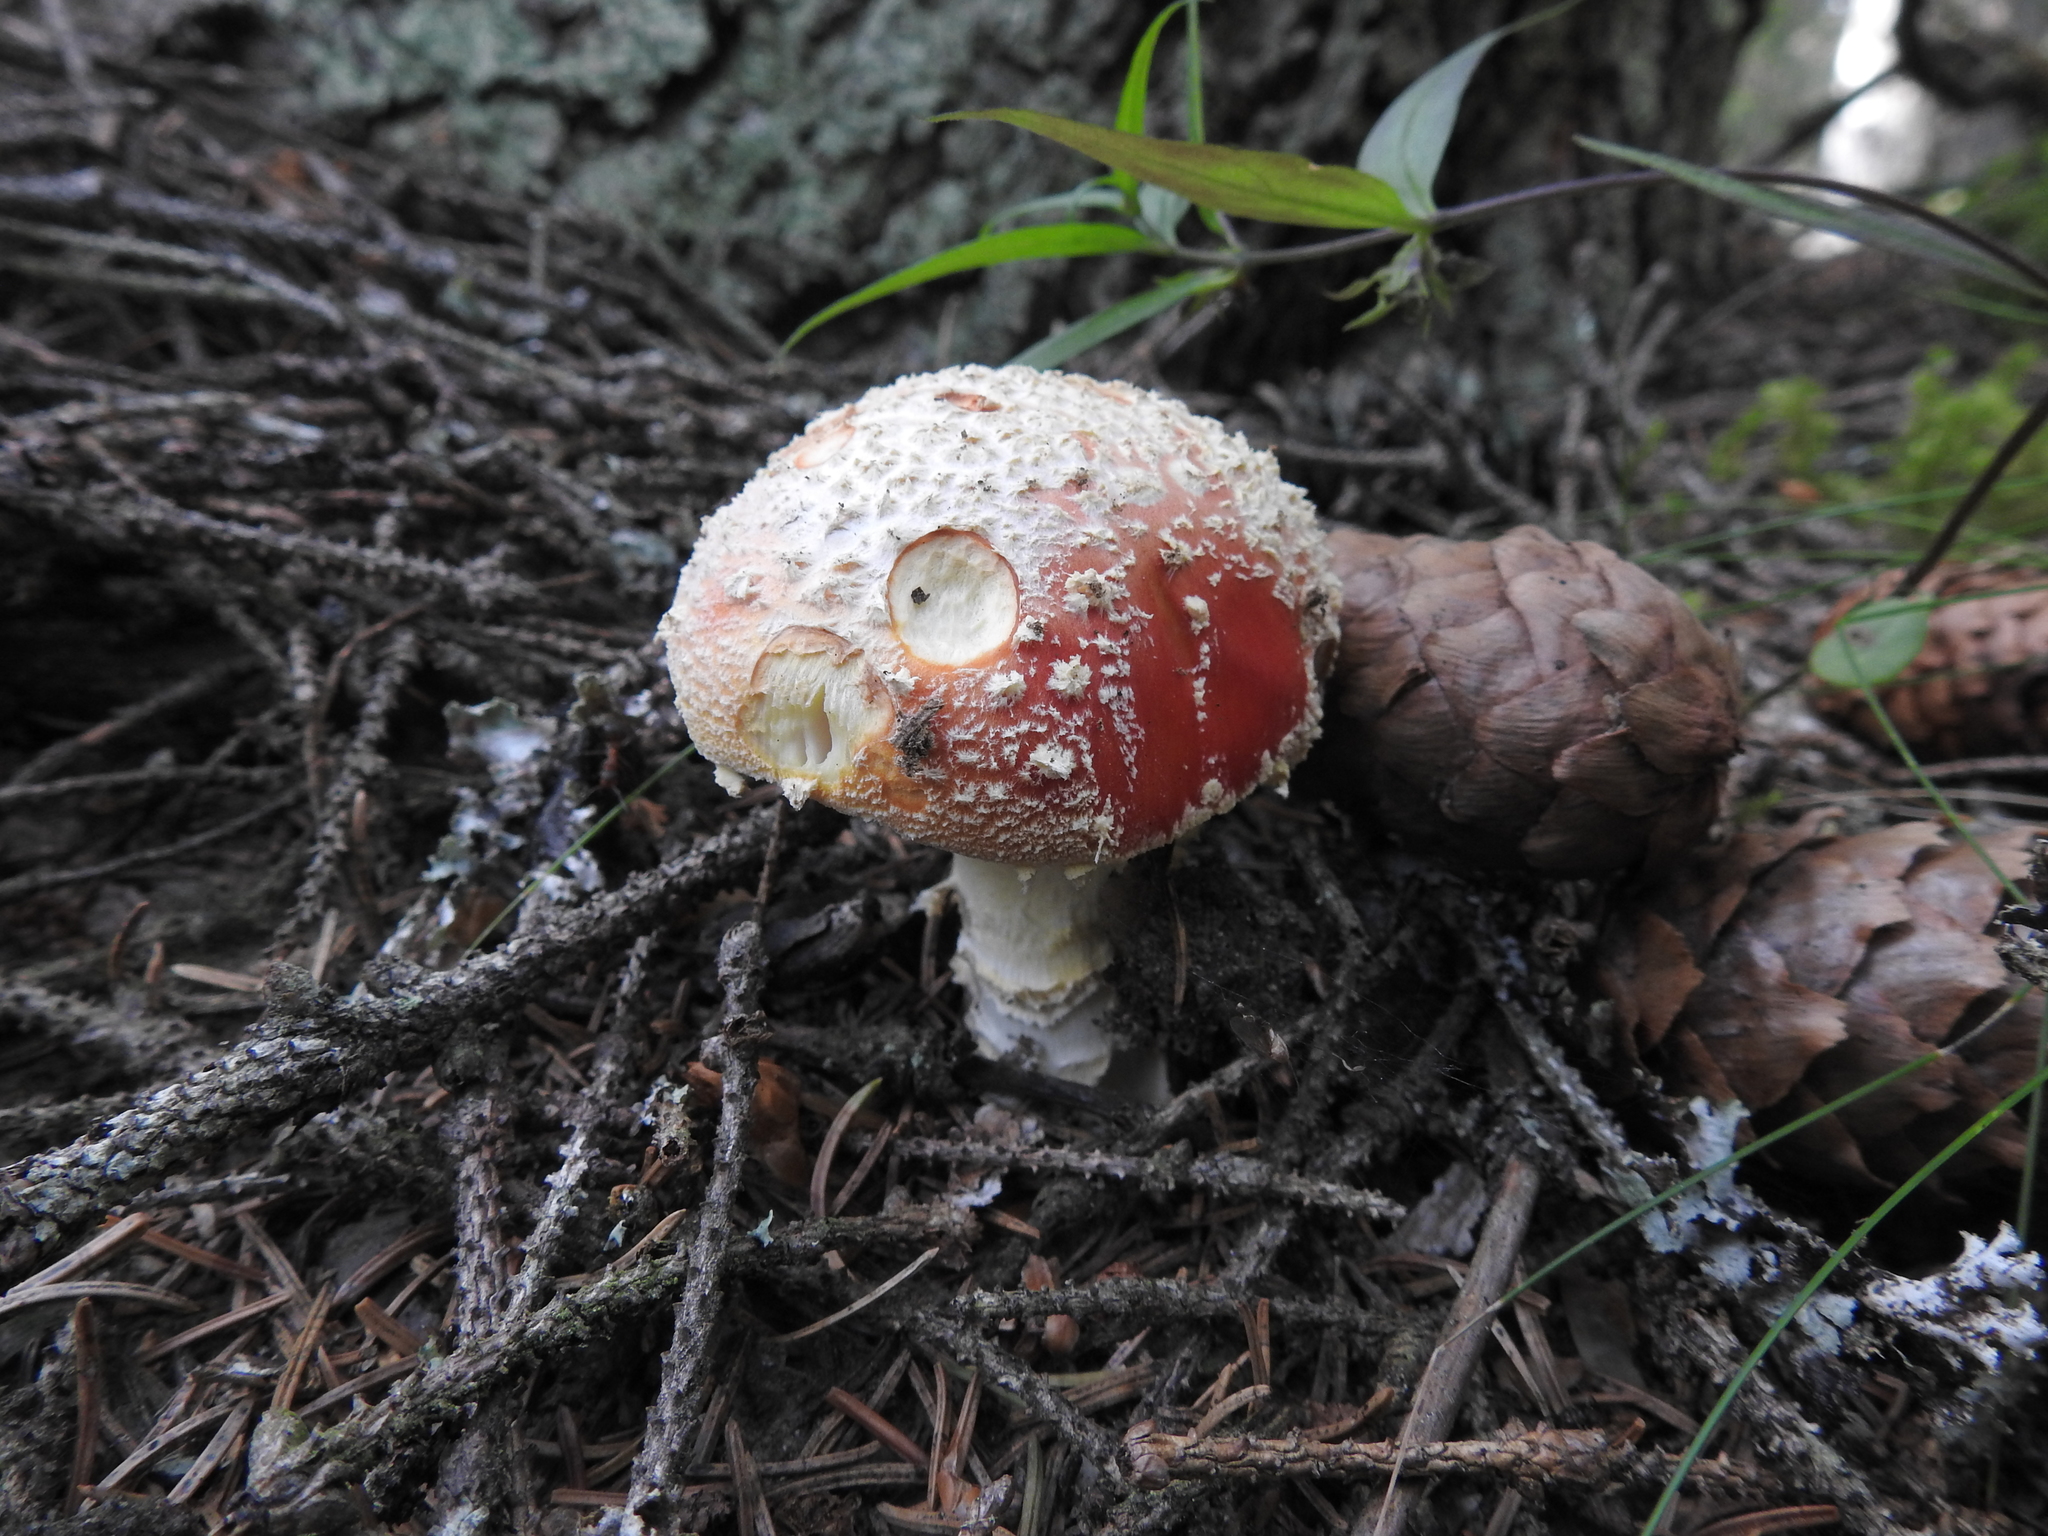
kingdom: Fungi
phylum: Basidiomycota
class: Agaricomycetes
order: Agaricales
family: Amanitaceae
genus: Amanita
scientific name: Amanita muscaria
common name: Fly agaric
